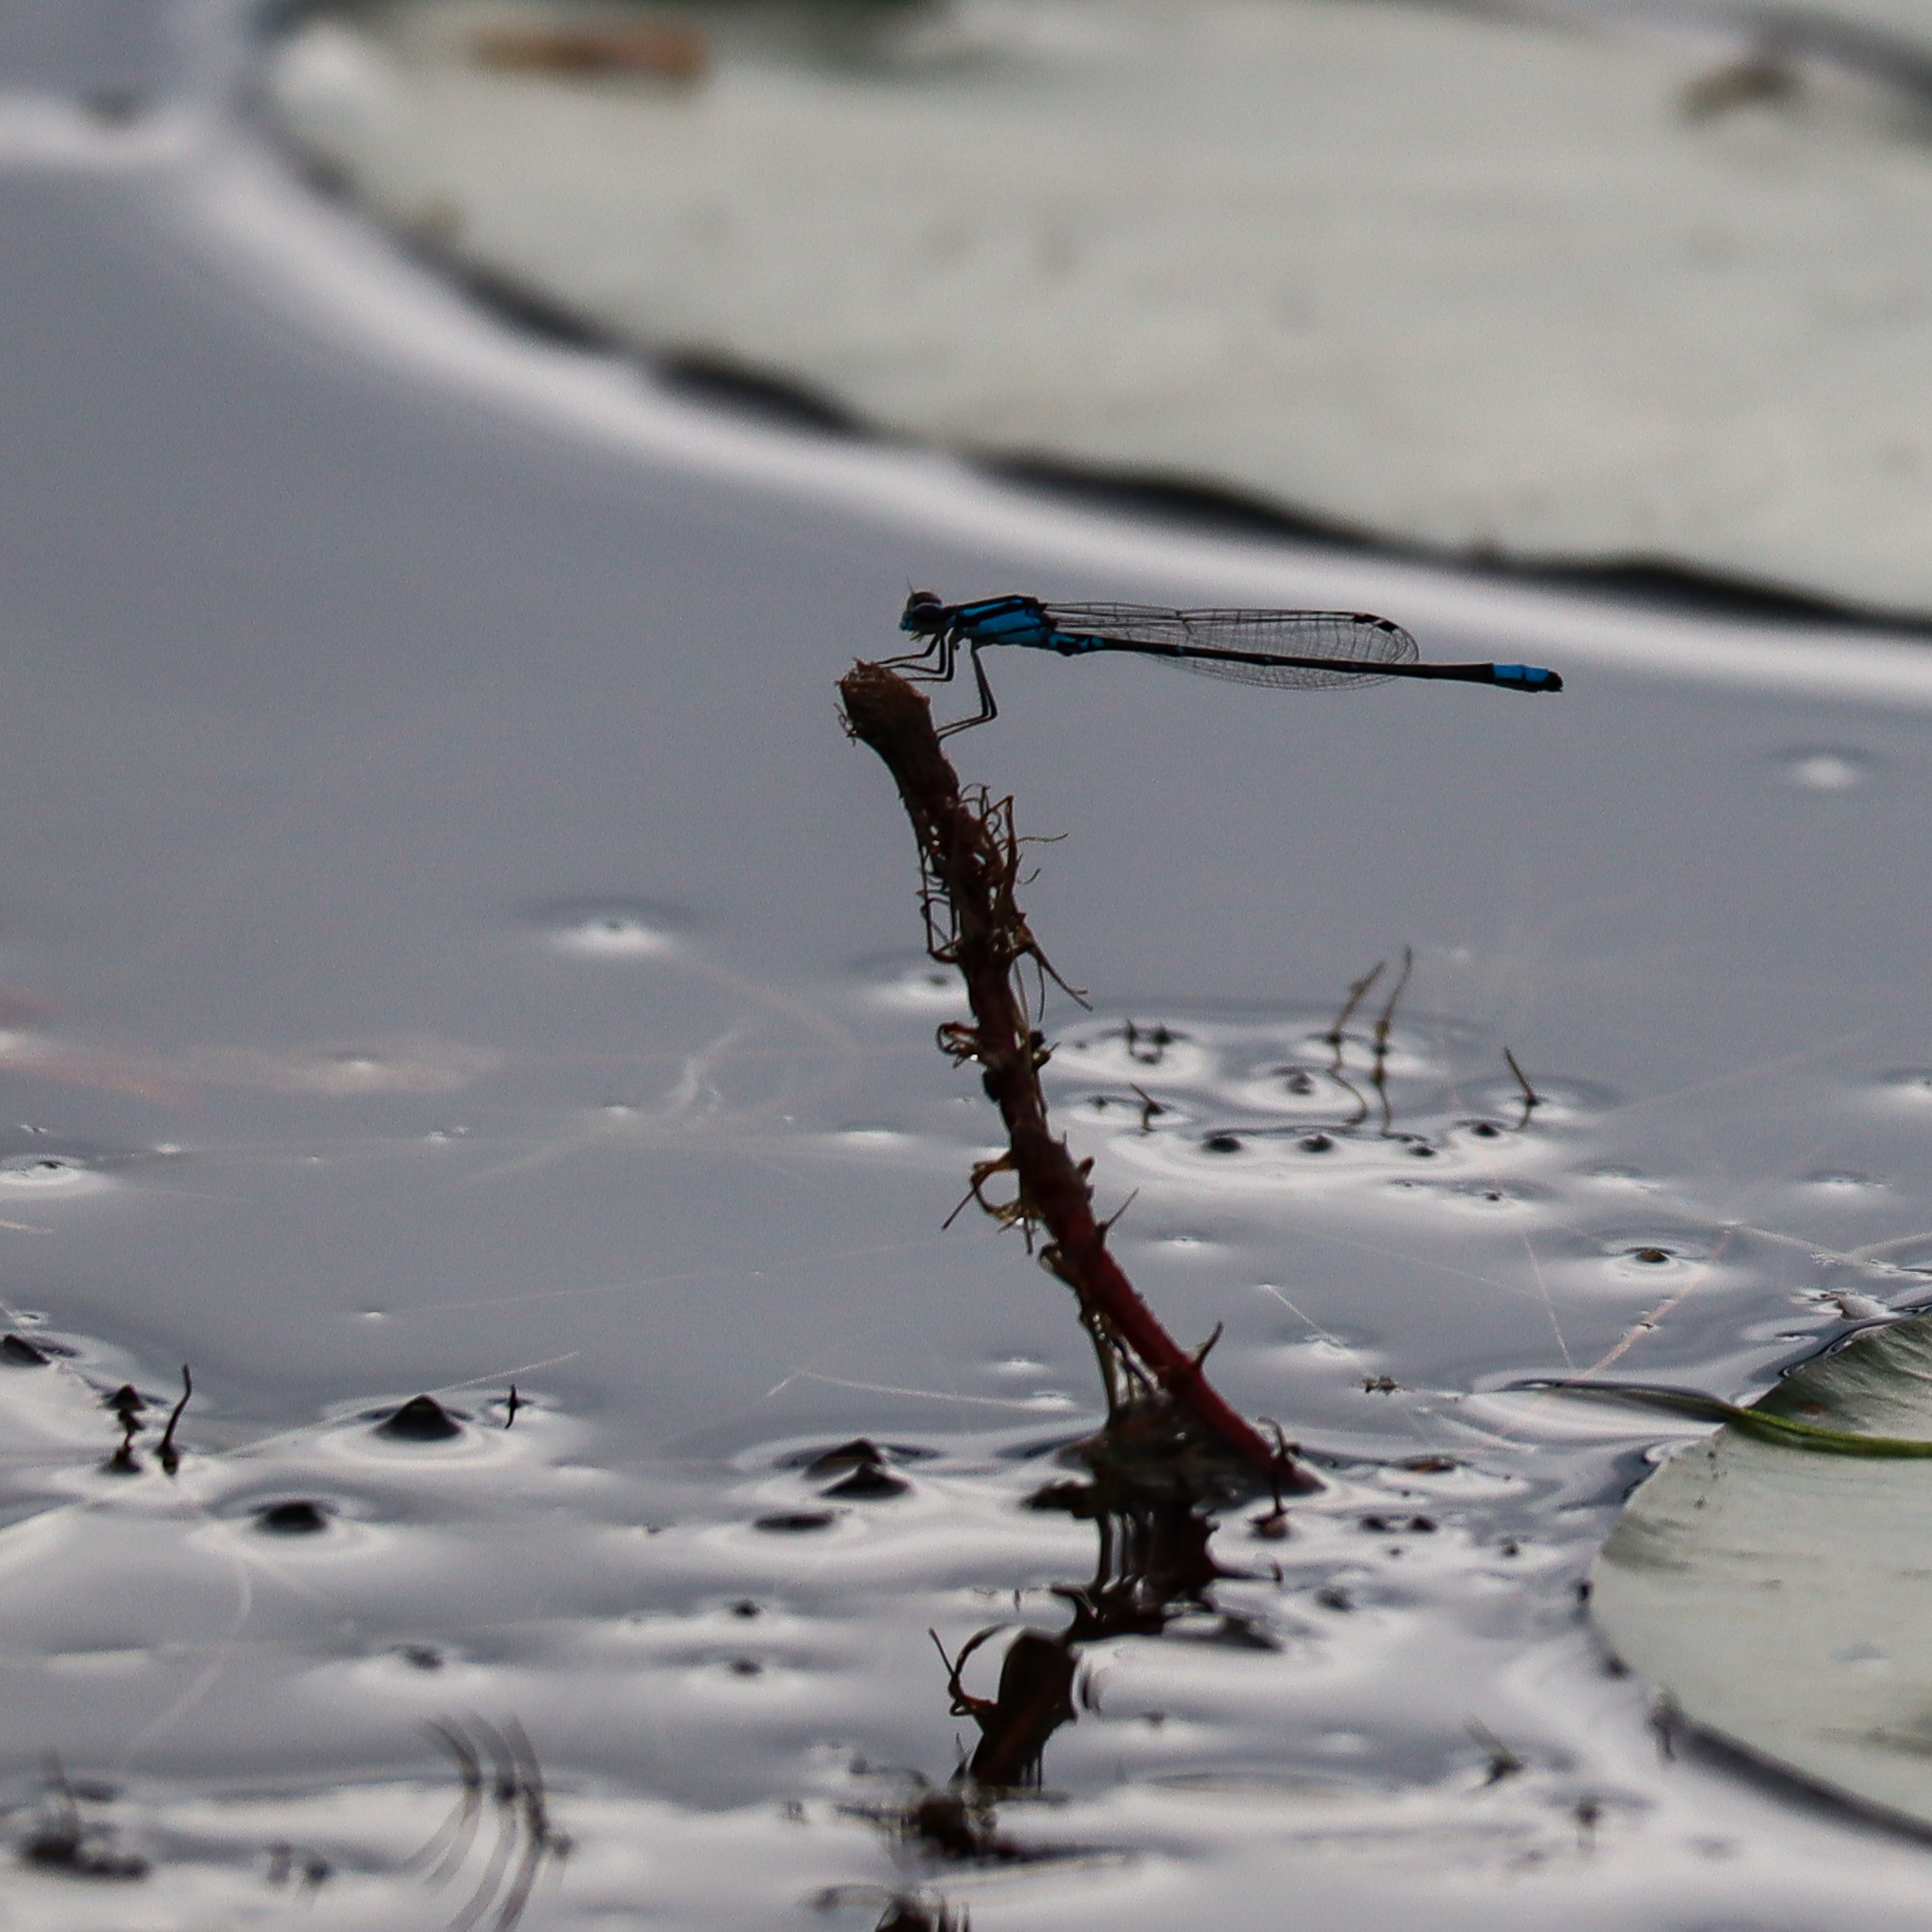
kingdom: Animalia
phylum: Arthropoda
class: Insecta
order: Odonata
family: Coenagrionidae
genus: Enallagma
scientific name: Enallagma geminatum
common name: Skimming bluet
